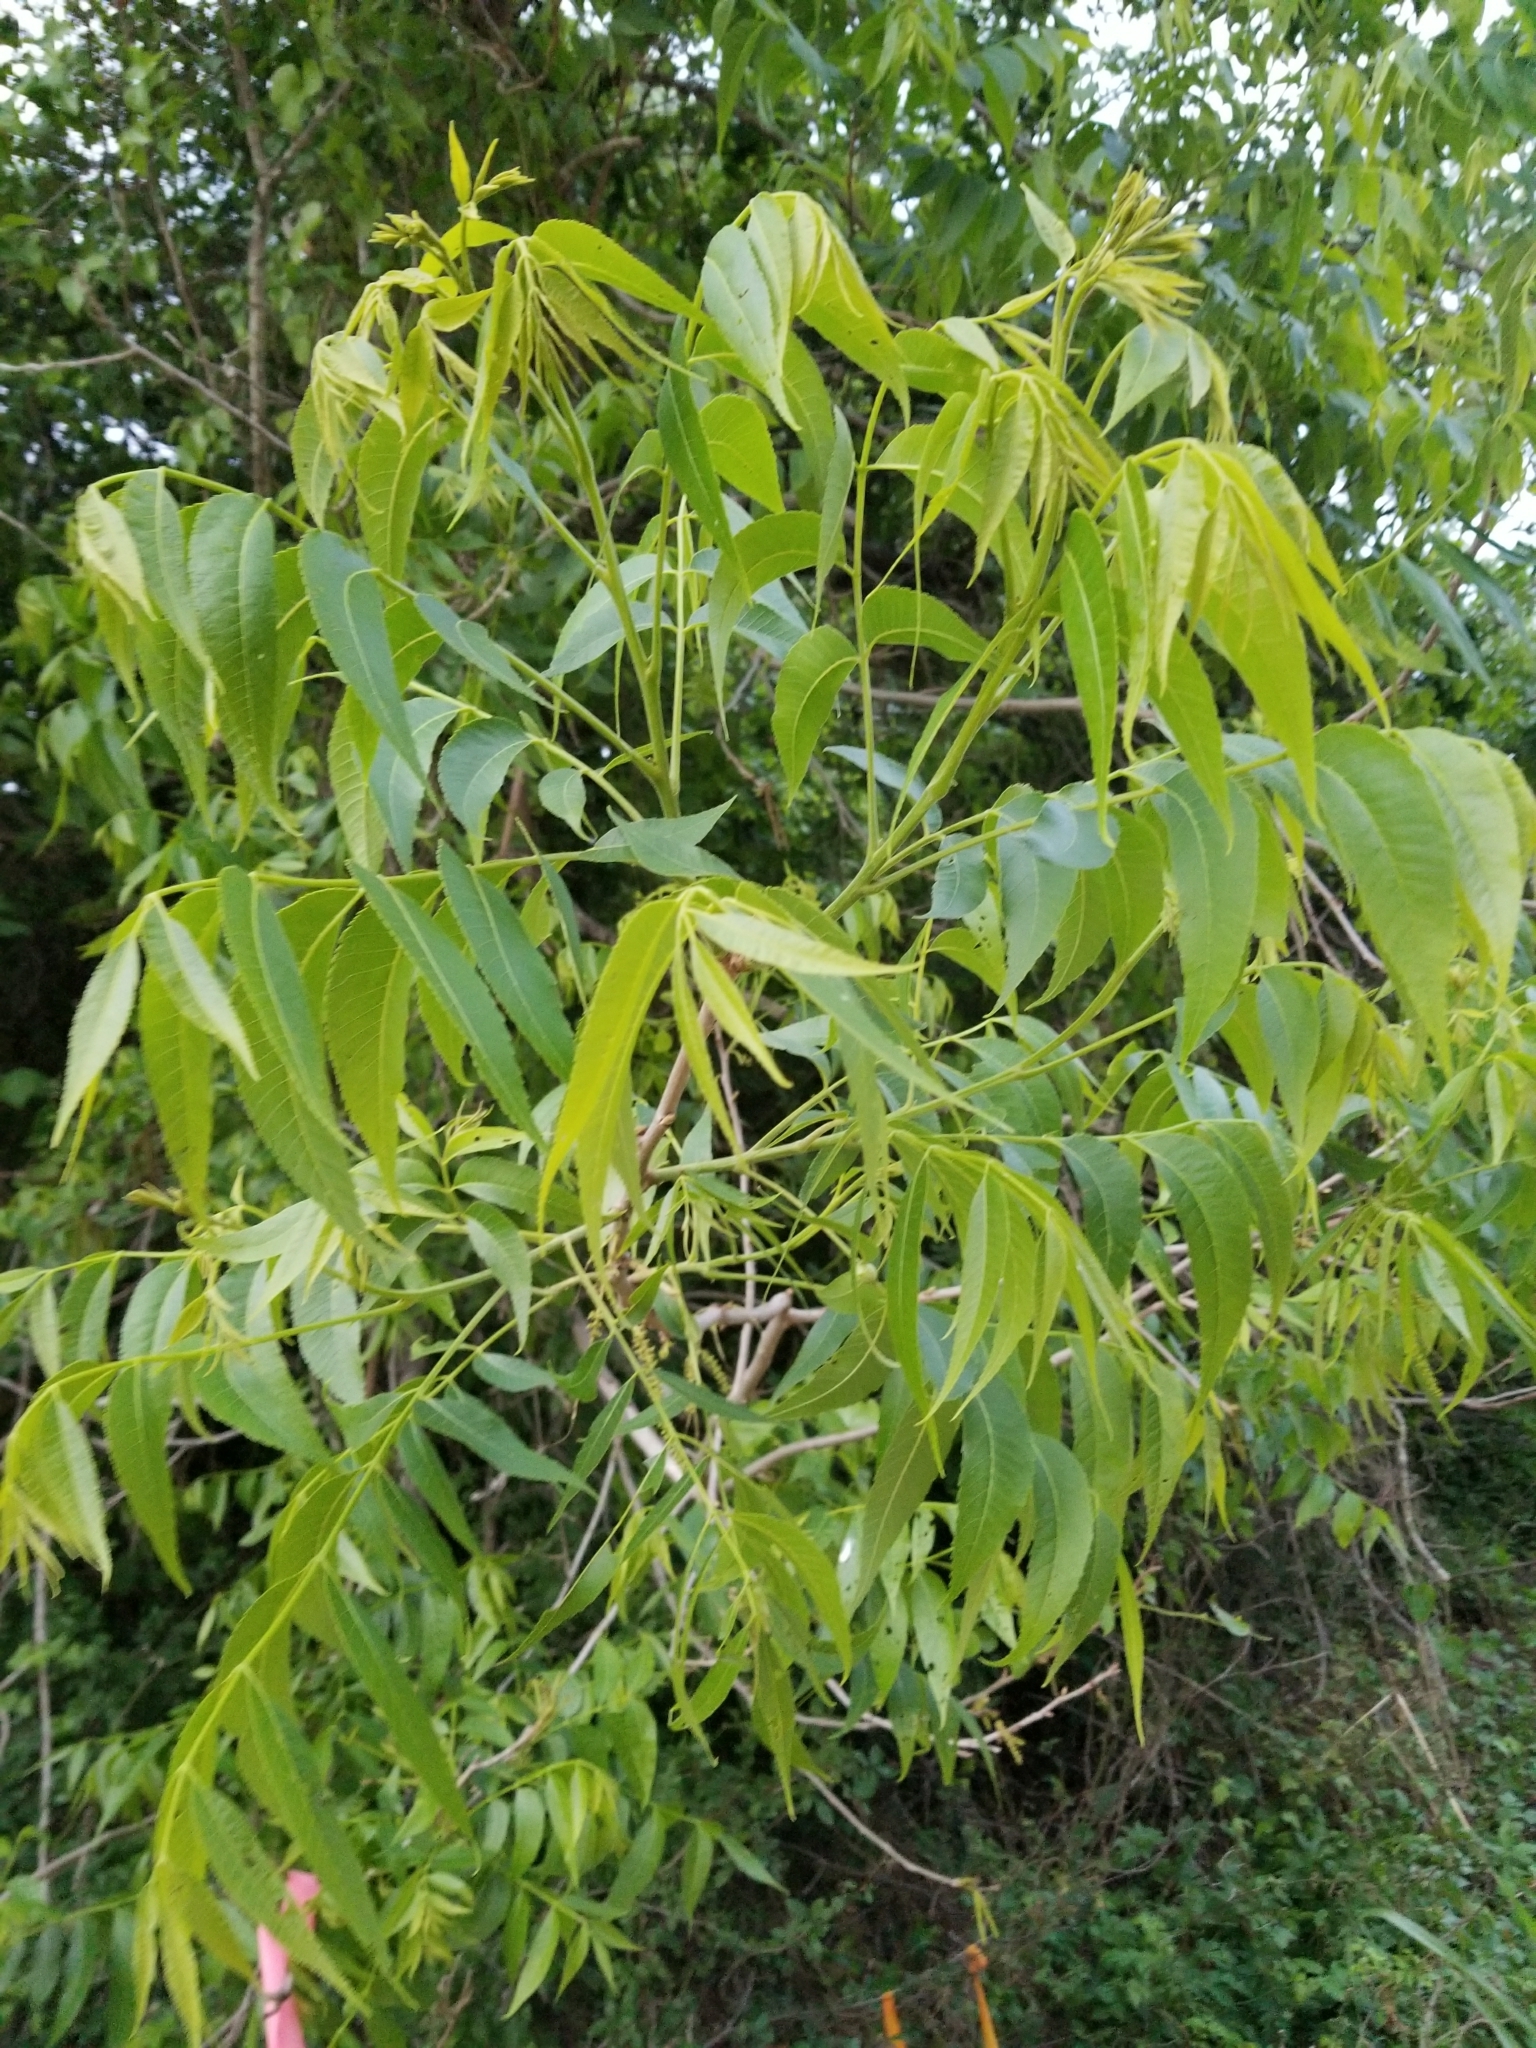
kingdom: Plantae
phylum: Tracheophyta
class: Magnoliopsida
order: Fagales
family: Juglandaceae
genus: Carya
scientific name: Carya illinoinensis
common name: Pecan
